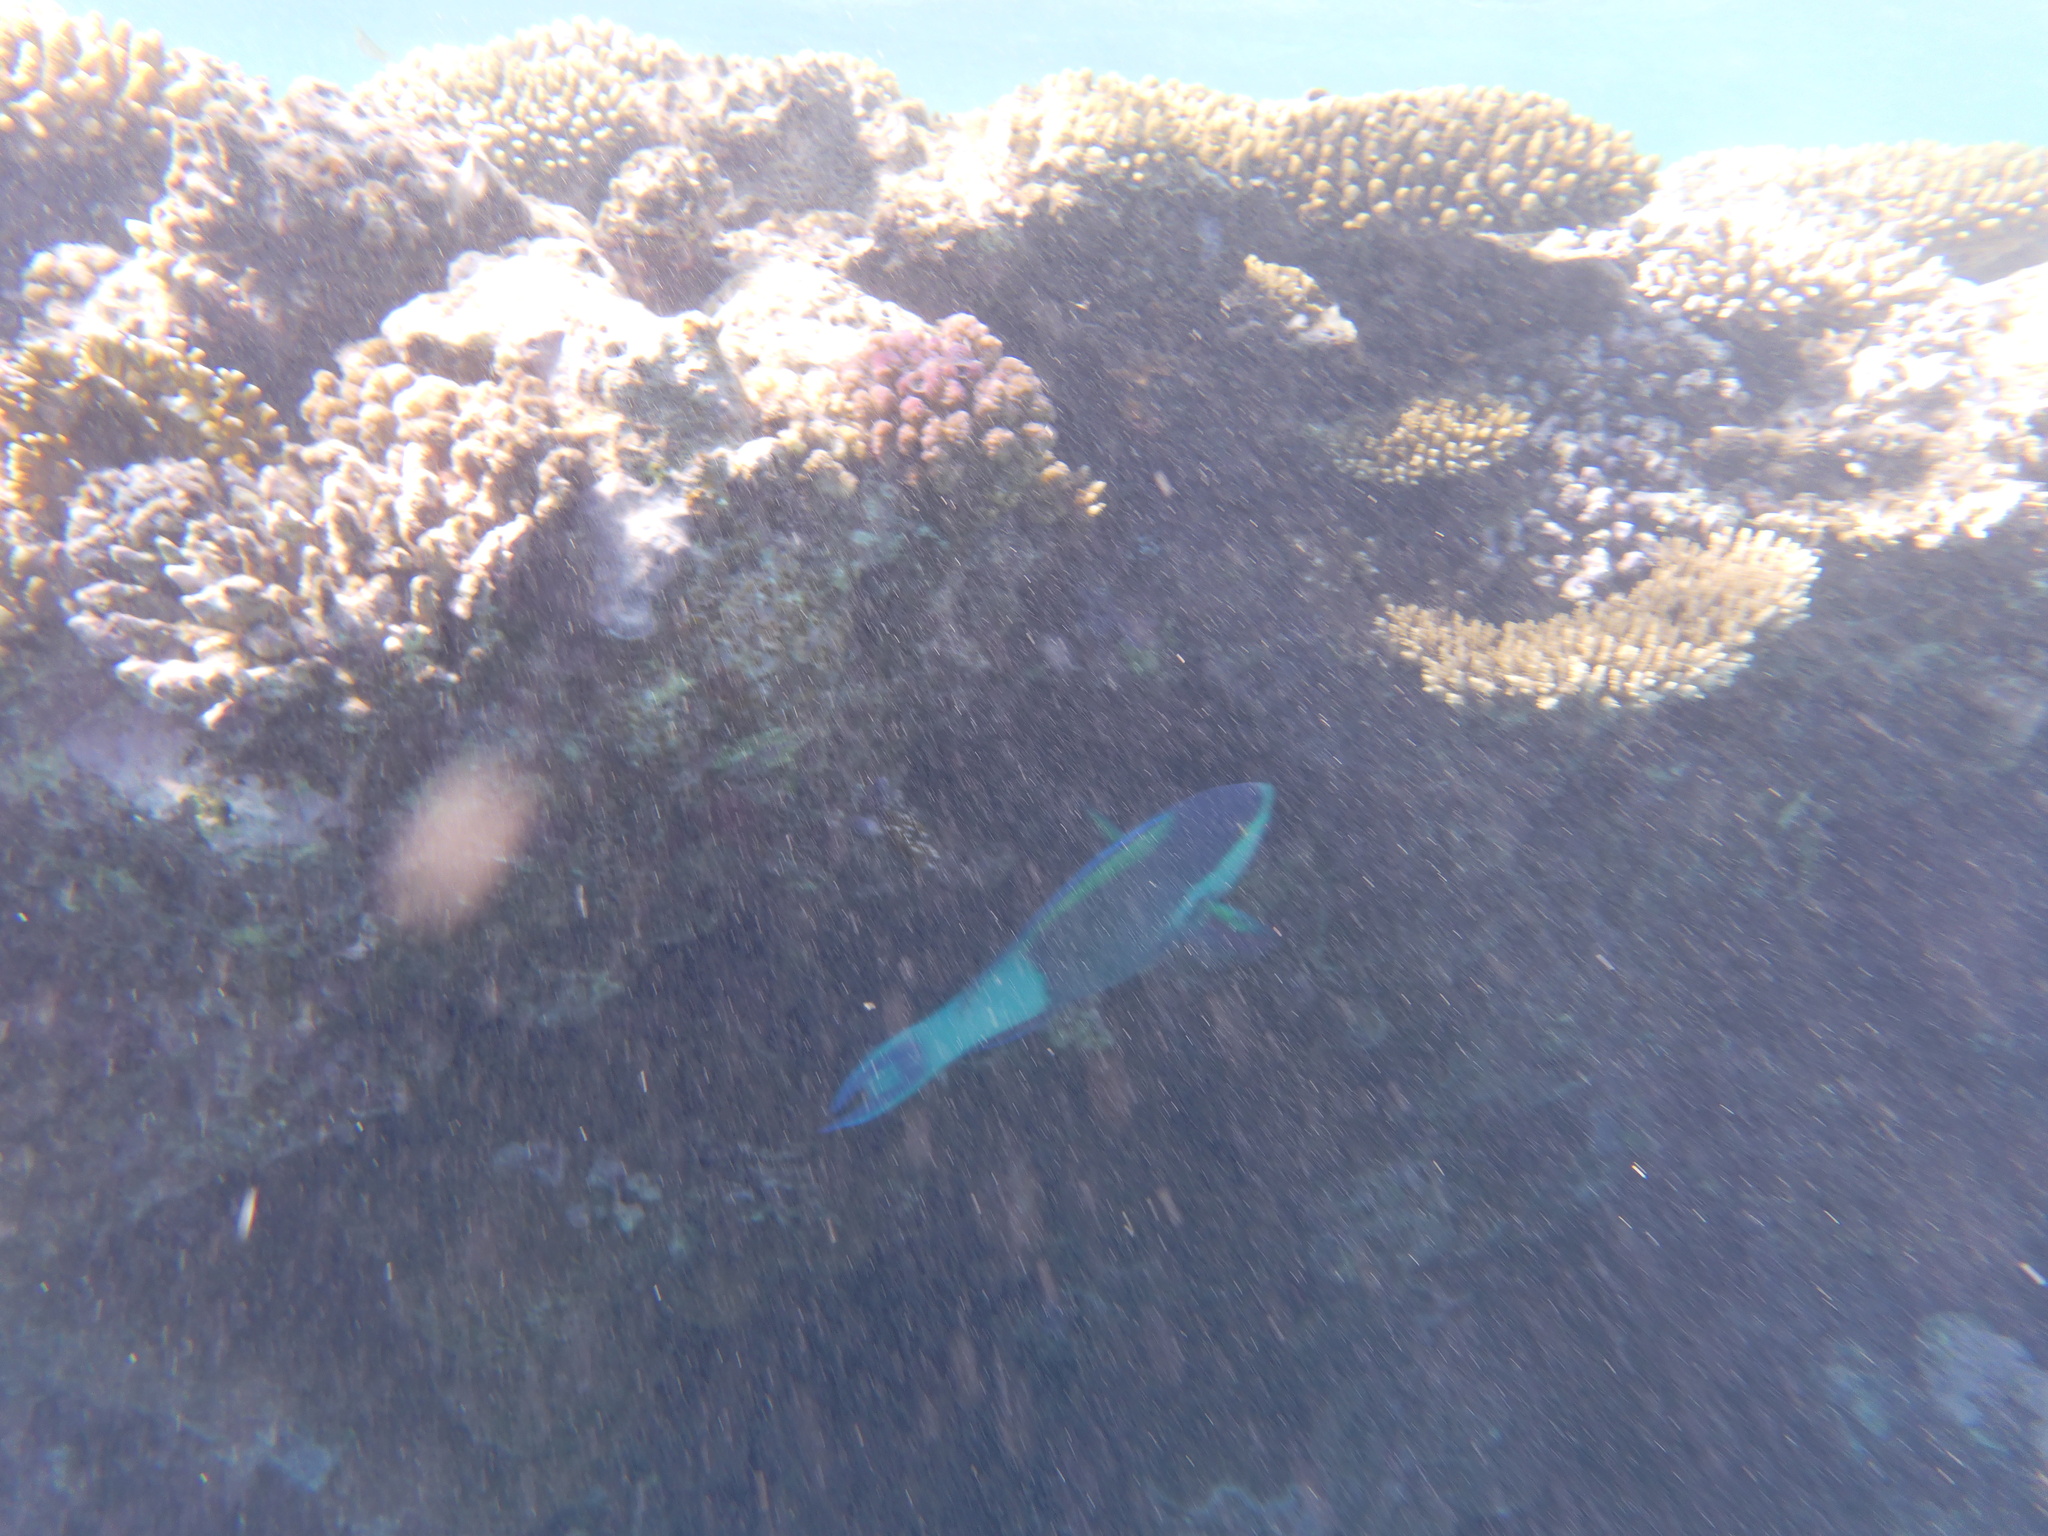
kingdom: Animalia
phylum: Chordata
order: Perciformes
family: Scaridae
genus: Scarus
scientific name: Scarus frenatus
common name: Bridled parrotfish
